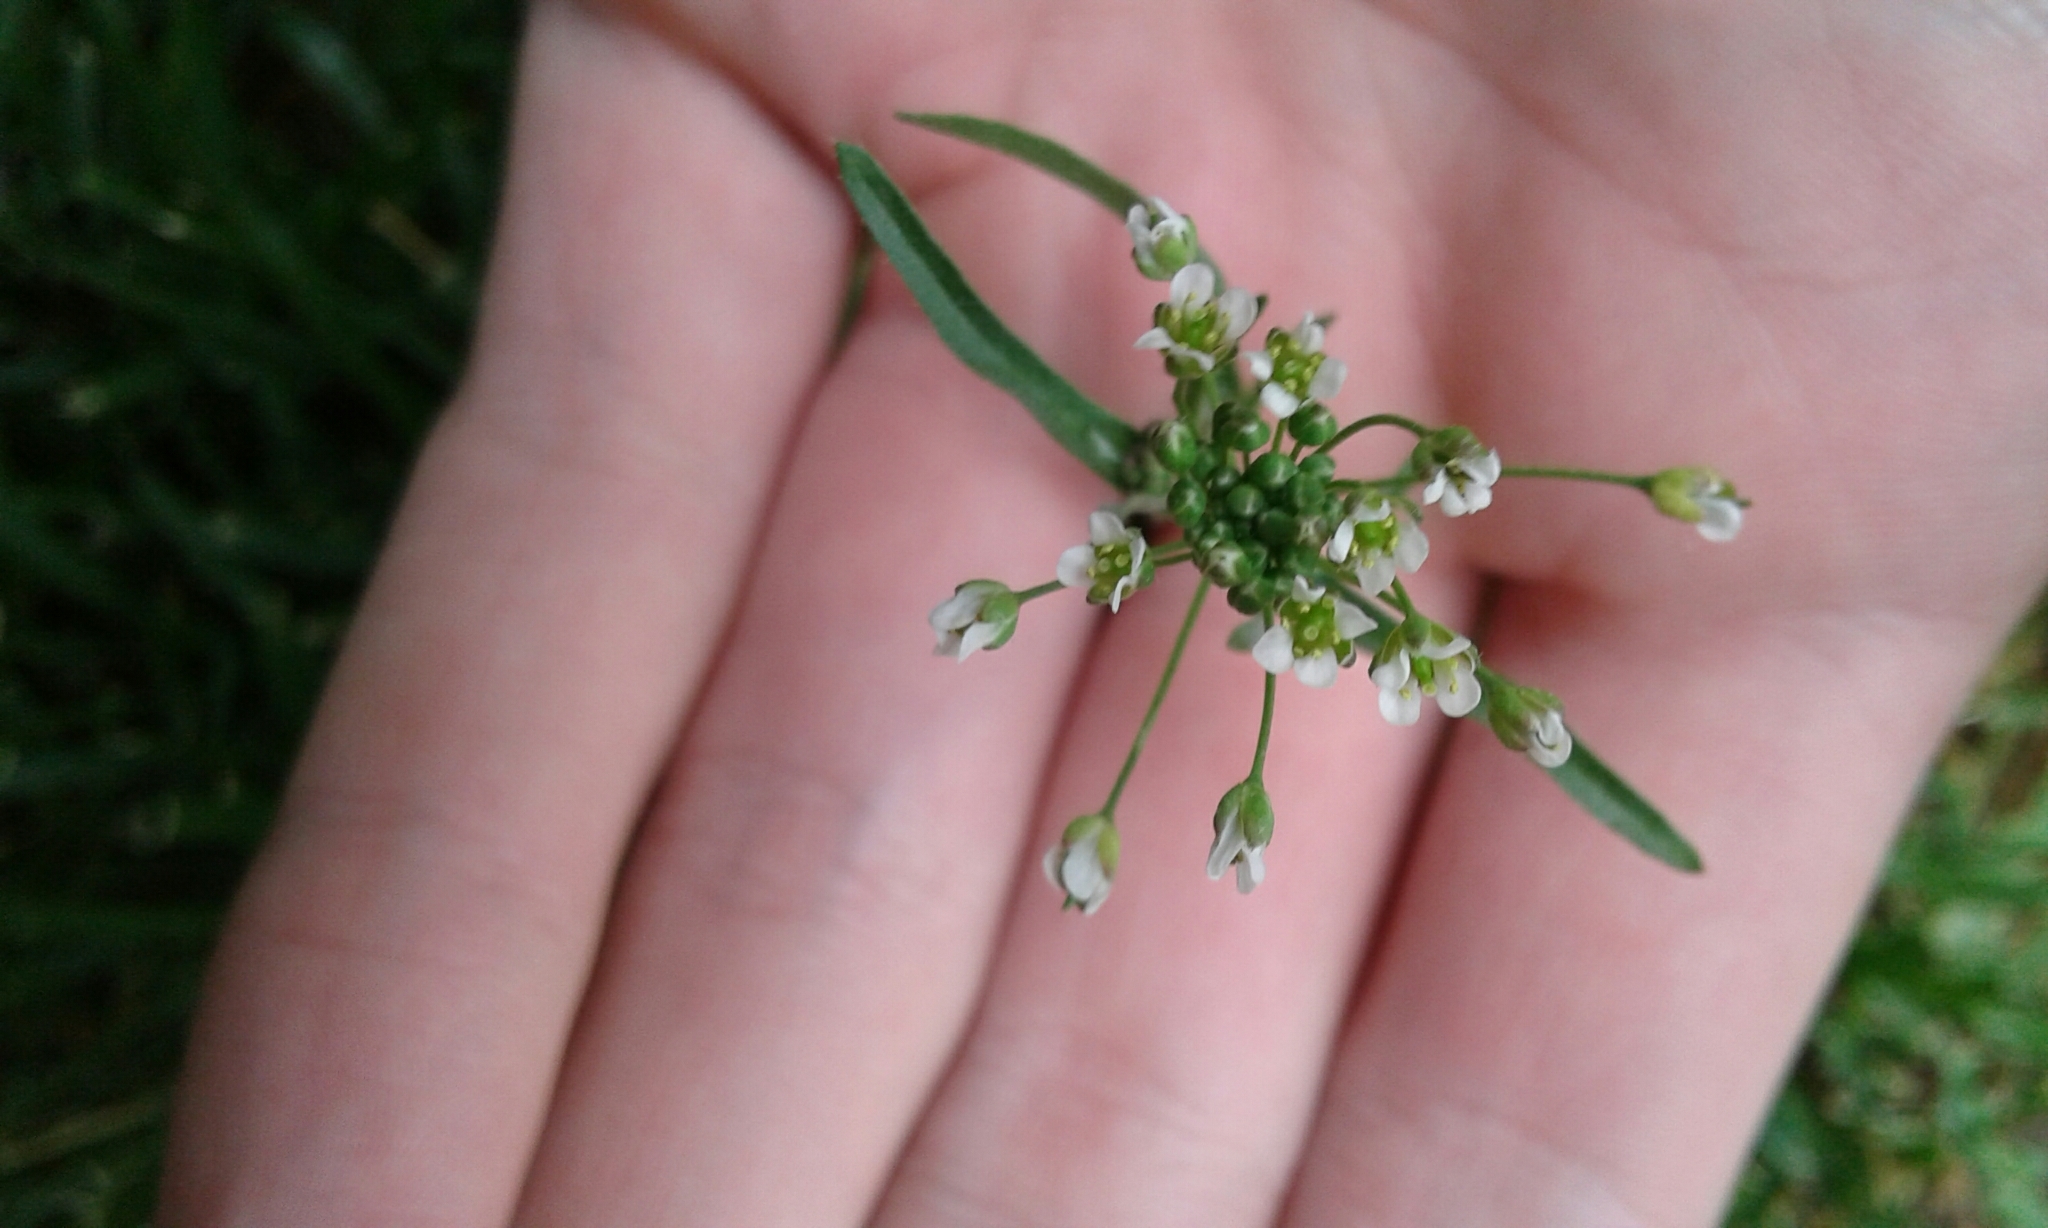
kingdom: Plantae
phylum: Tracheophyta
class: Magnoliopsida
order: Brassicales
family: Brassicaceae
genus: Capsella
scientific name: Capsella bursa-pastoris
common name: Shepherd's purse
